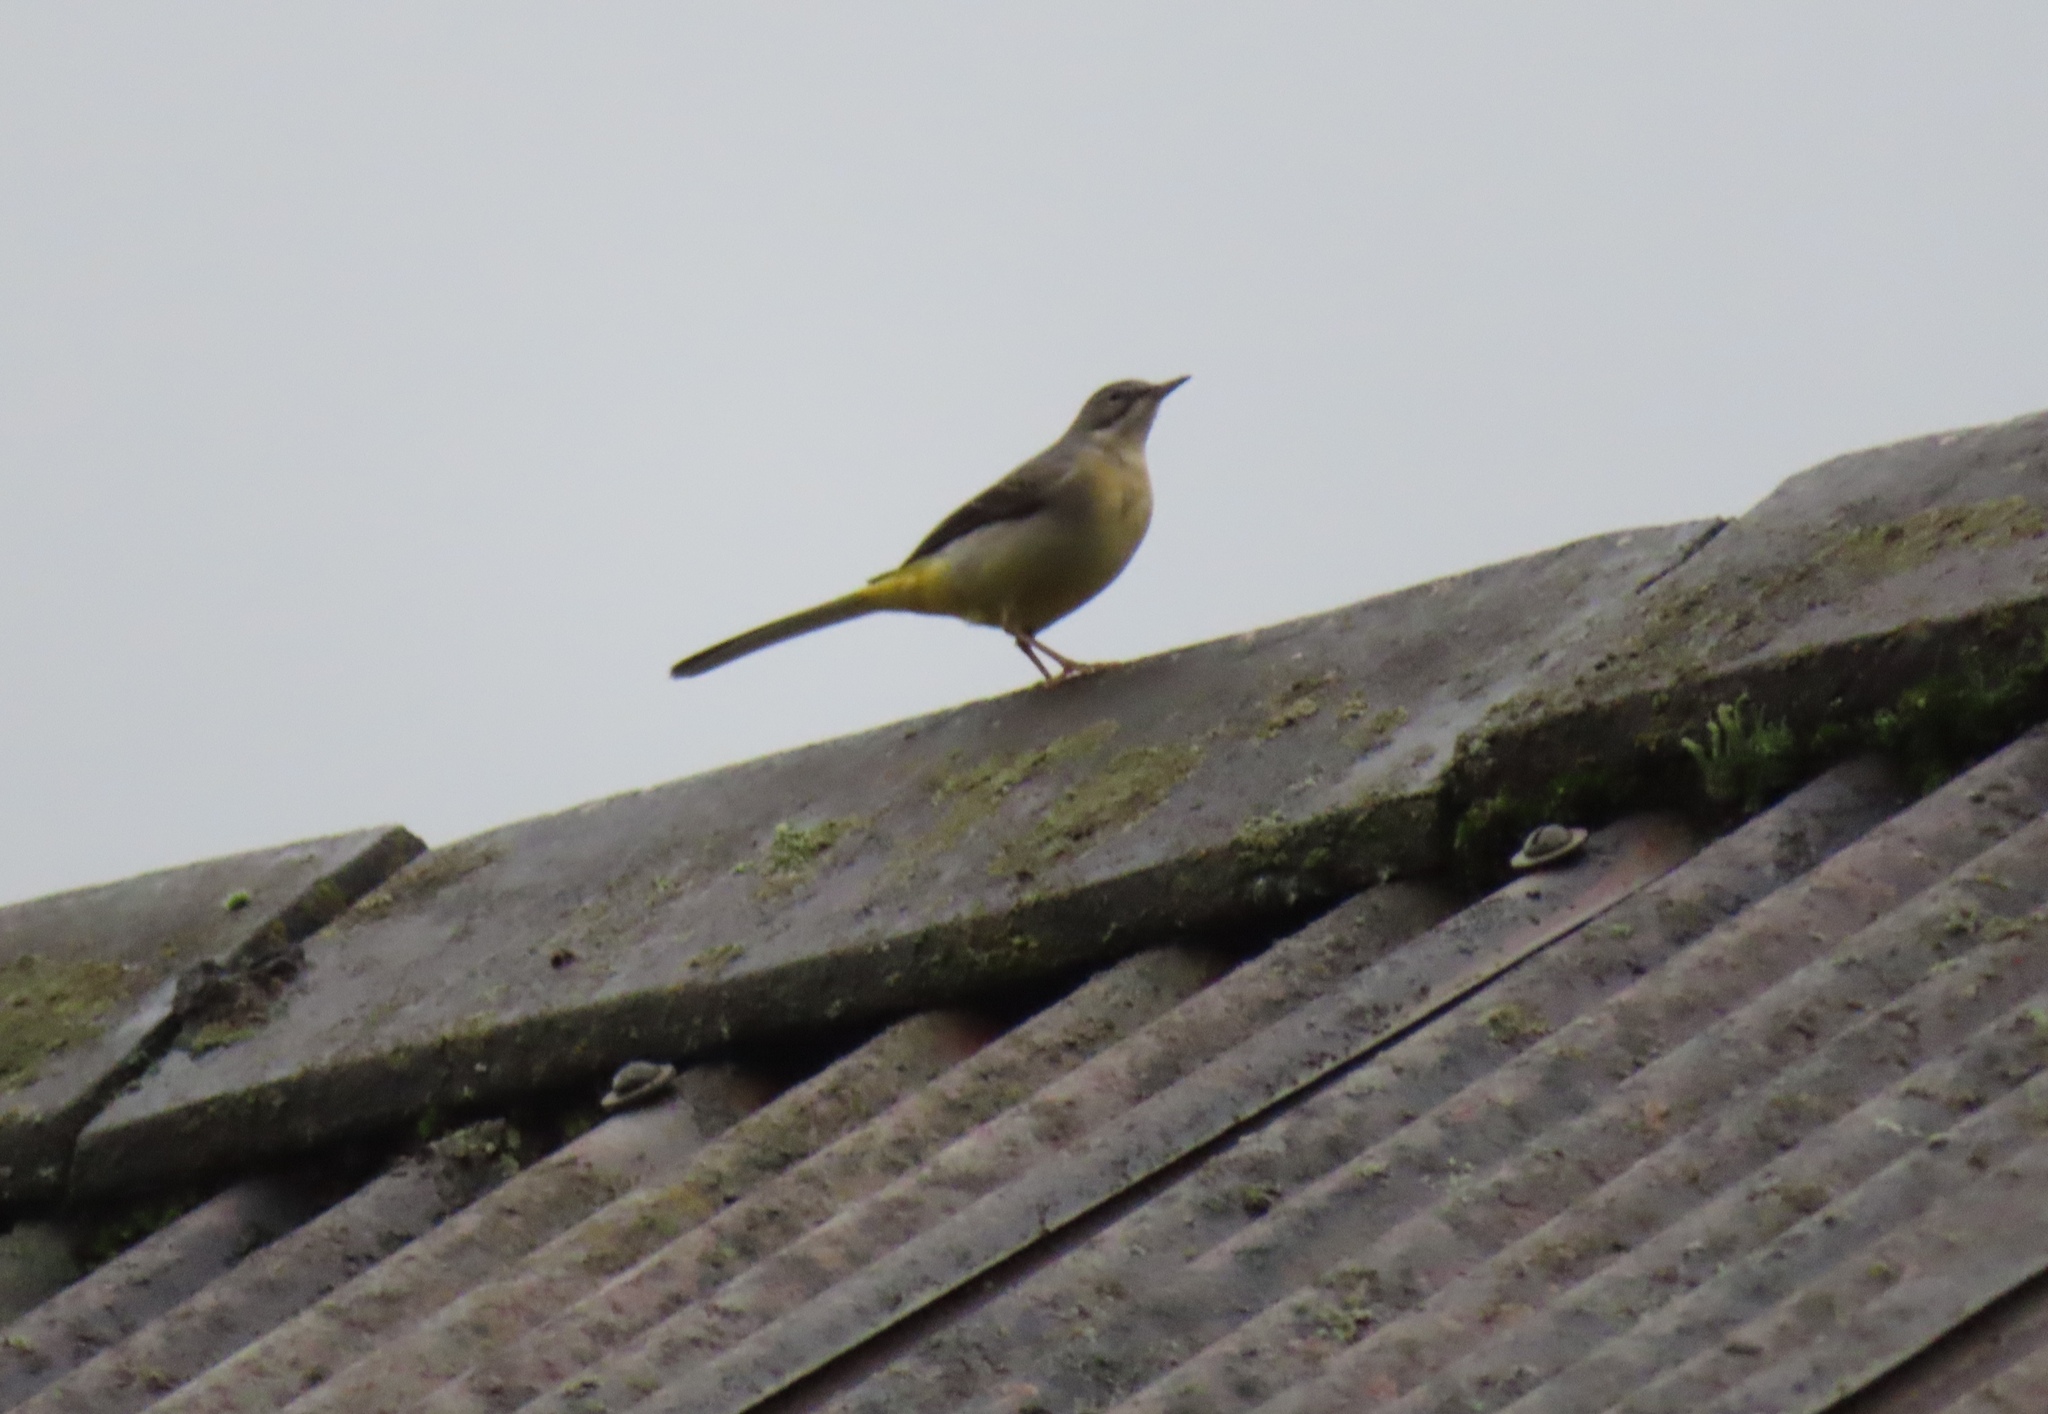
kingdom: Animalia
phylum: Chordata
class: Aves
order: Passeriformes
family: Motacillidae
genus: Motacilla
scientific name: Motacilla cinerea
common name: Grey wagtail
